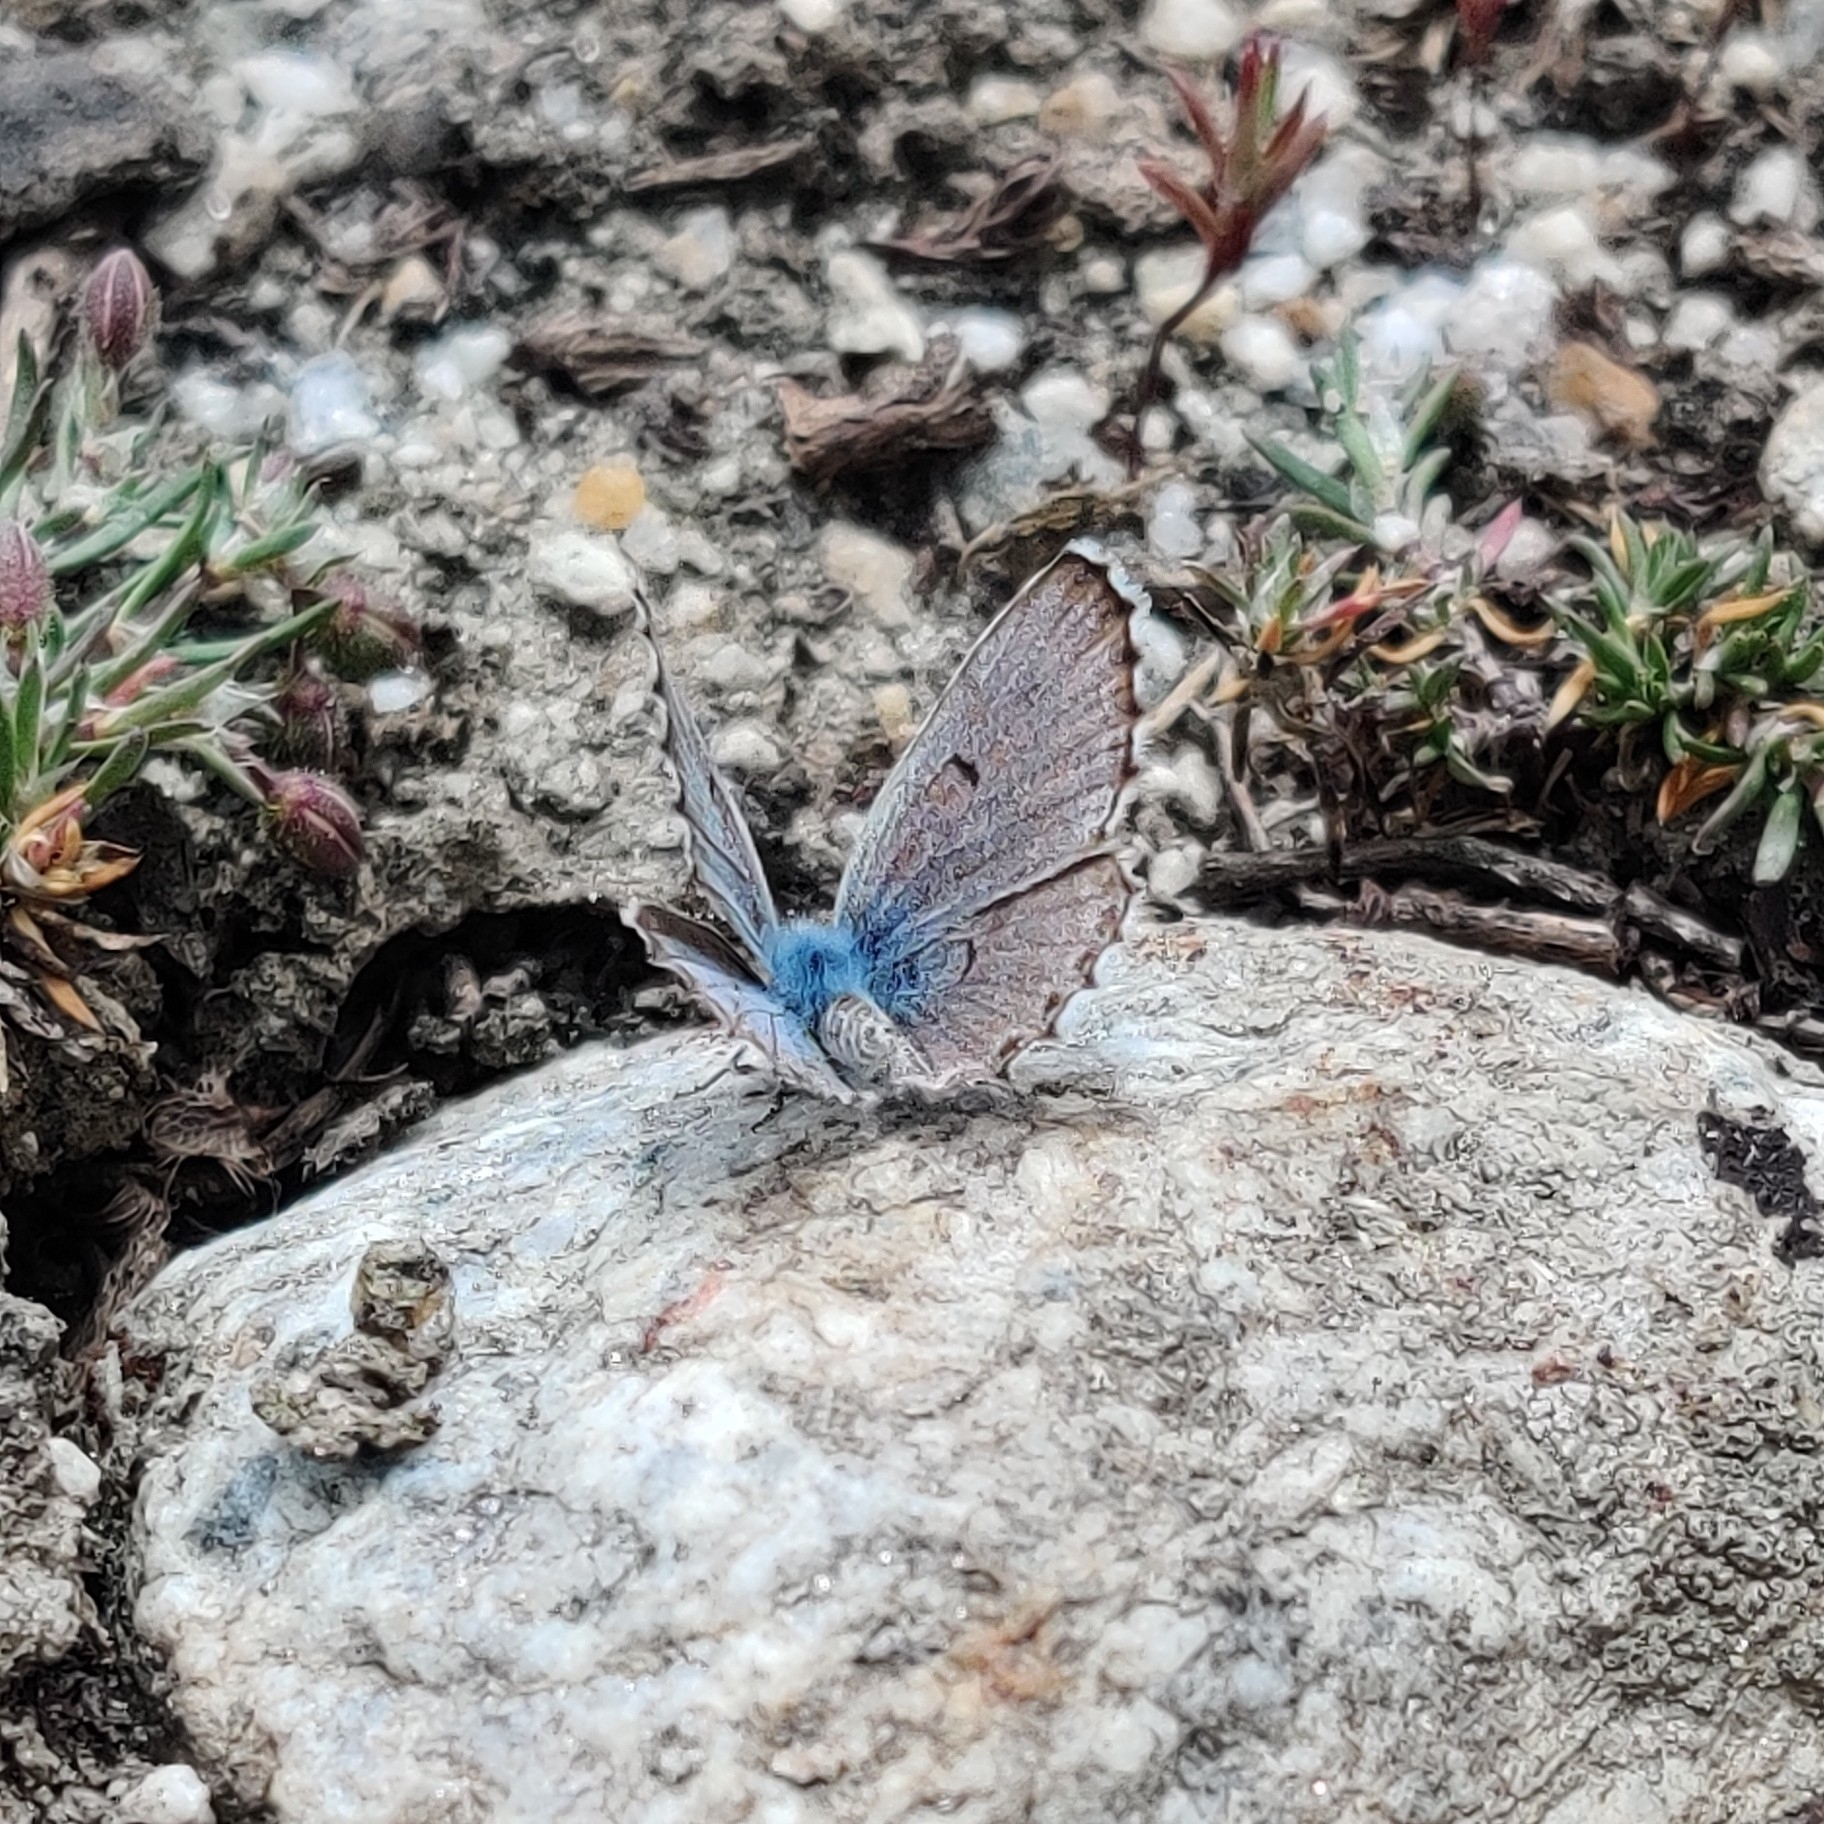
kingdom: Animalia
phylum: Arthropoda
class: Insecta
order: Lepidoptera
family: Lycaenidae
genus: Pseudophilotes
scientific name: Pseudophilotes baton
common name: Baton blue
